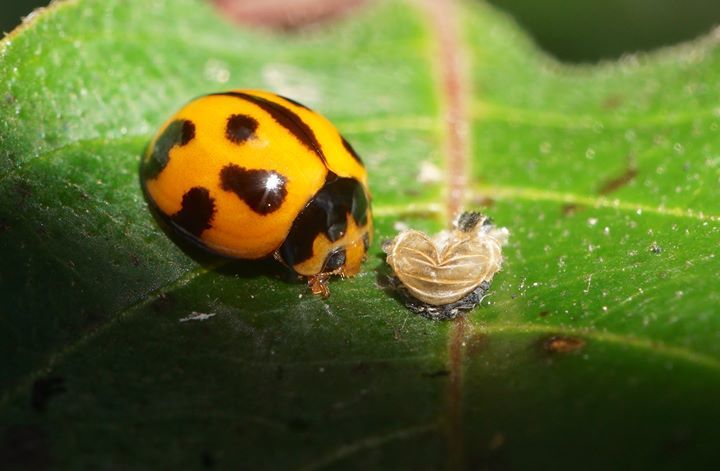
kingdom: Animalia
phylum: Arthropoda
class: Insecta
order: Coleoptera
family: Coccinellidae
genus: Coelophora
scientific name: Coelophora inaequalis
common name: Common australian lady beetle
